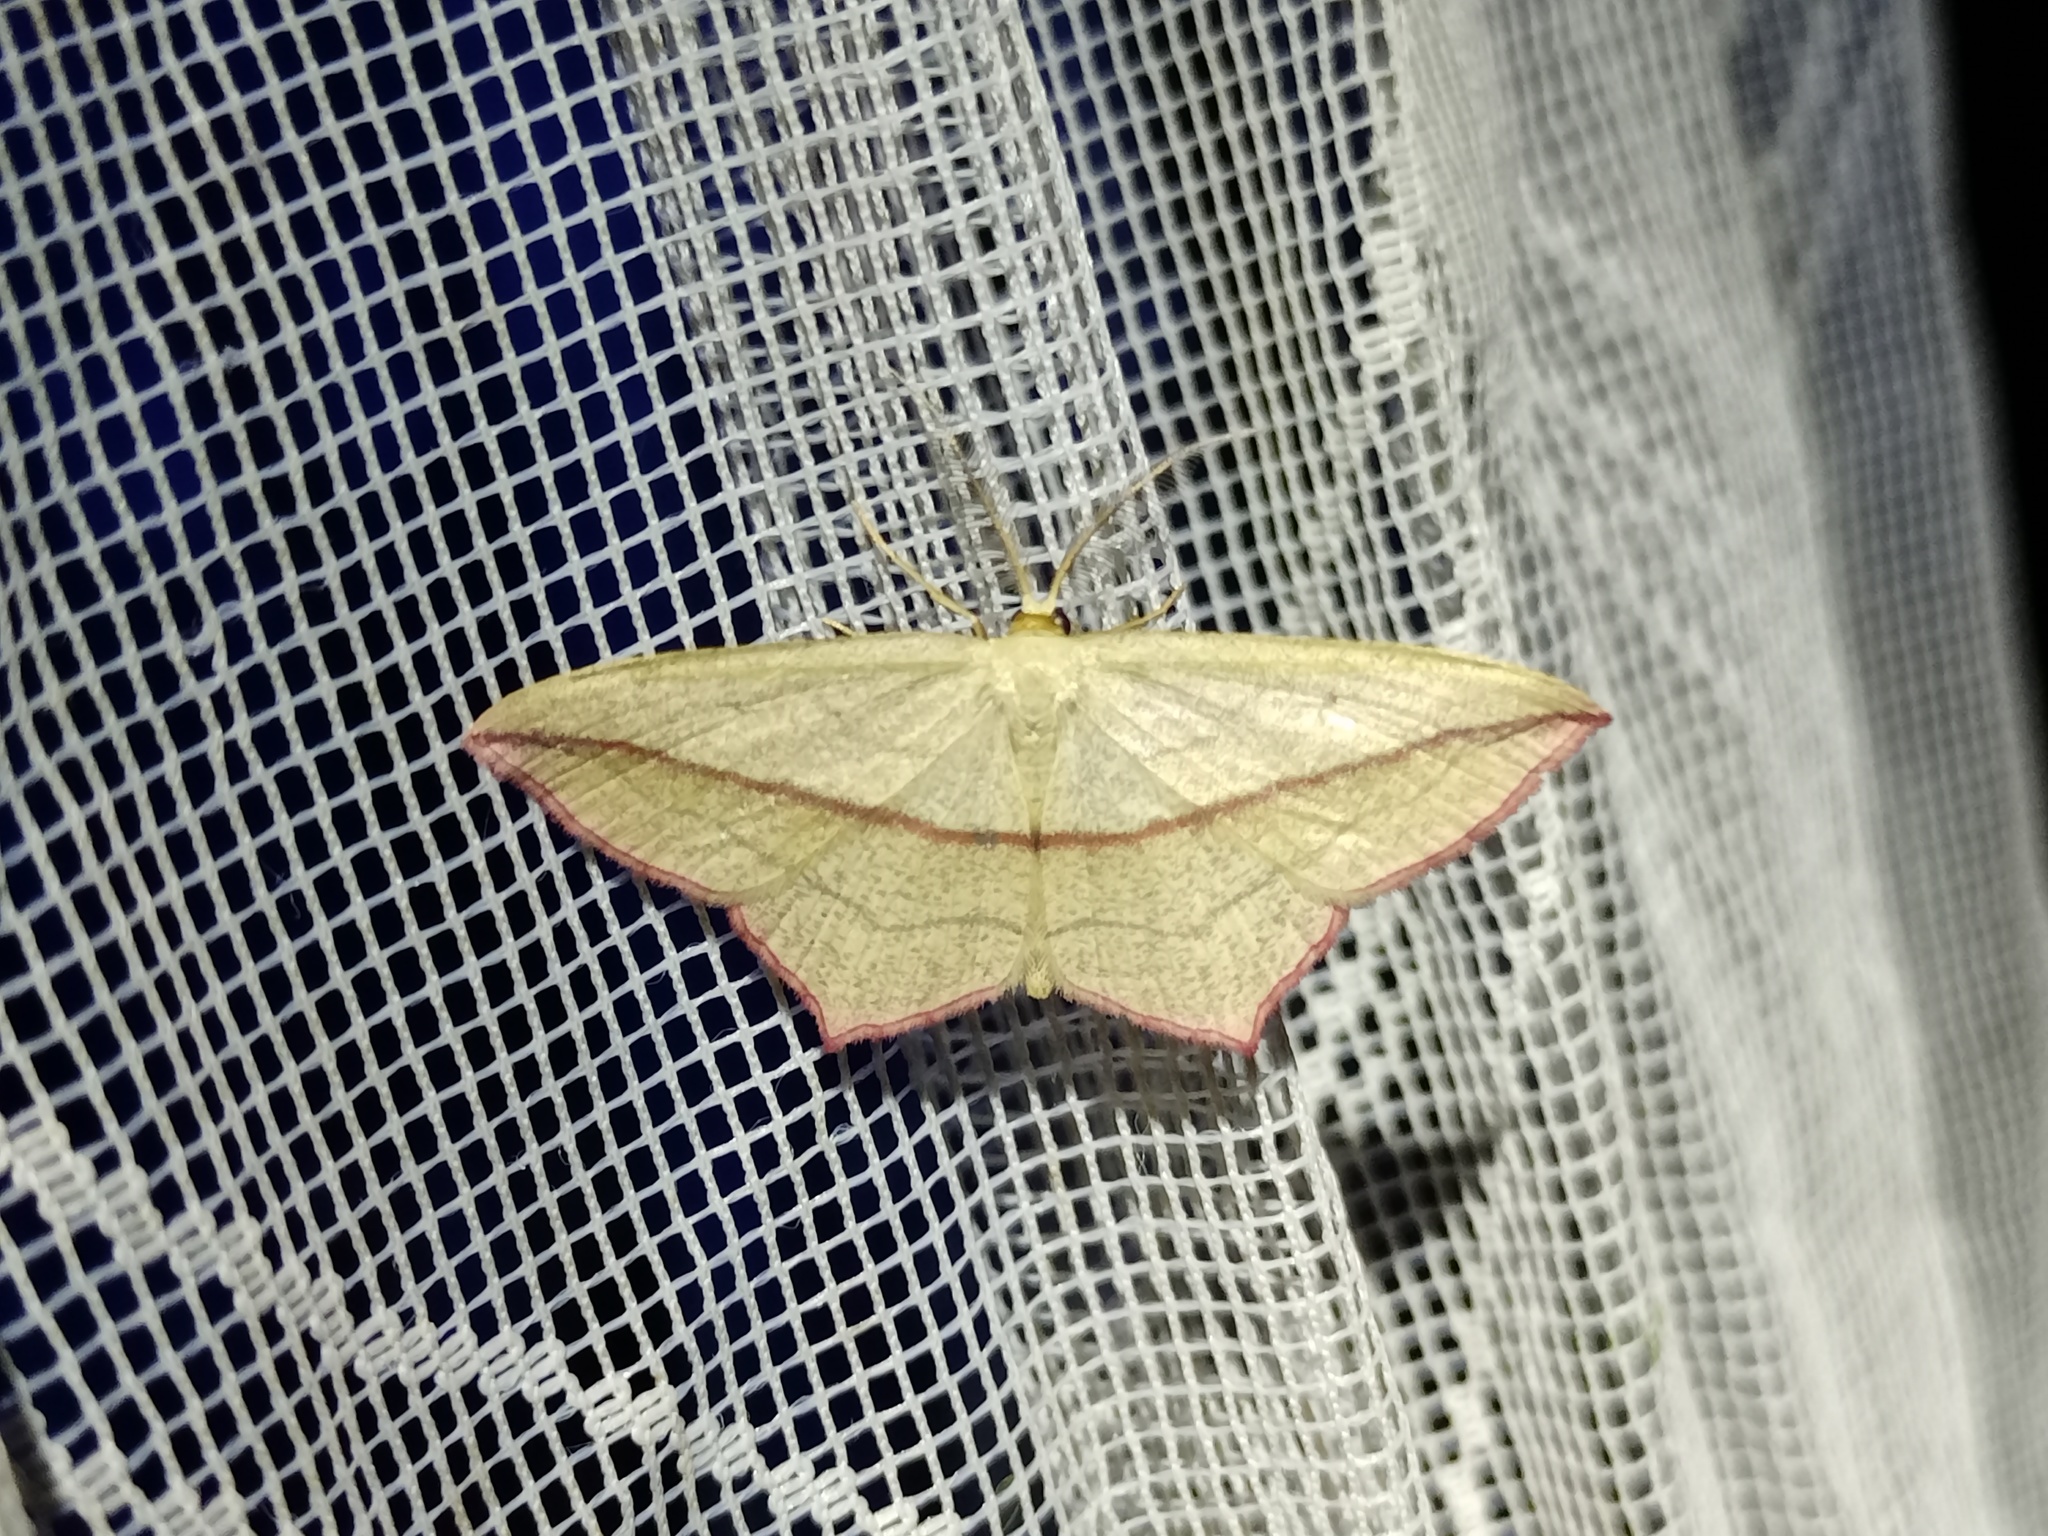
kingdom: Animalia
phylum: Arthropoda
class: Insecta
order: Lepidoptera
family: Geometridae
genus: Timandra
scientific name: Timandra comae
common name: Blood-vein
